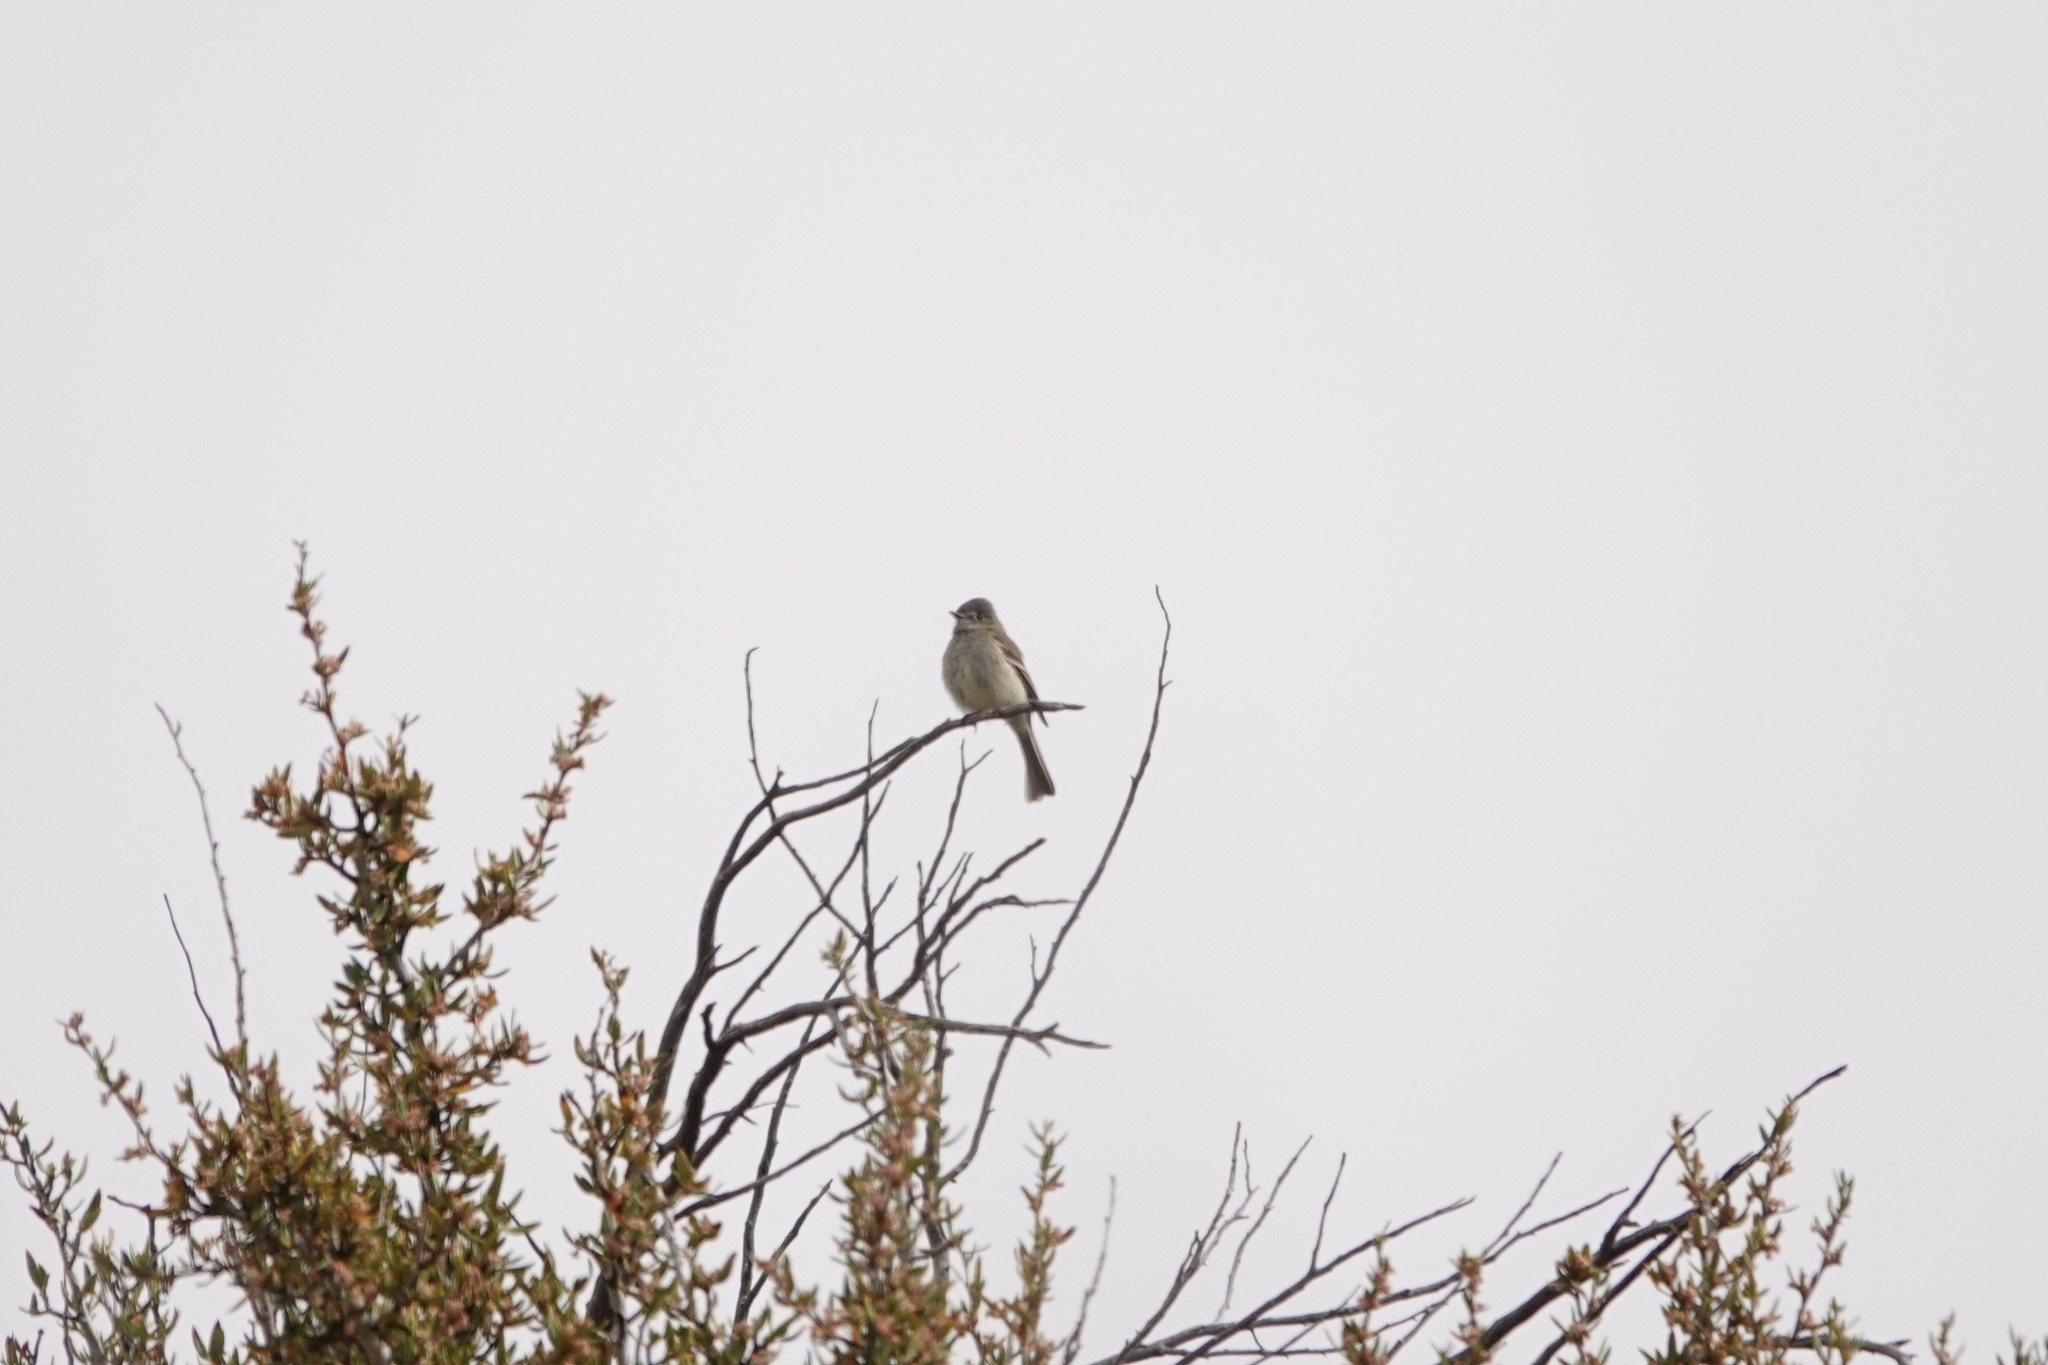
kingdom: Animalia
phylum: Chordata
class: Aves
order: Passeriformes
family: Tyrannidae
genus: Empidonax
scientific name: Empidonax wrightii
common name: Gray flycatcher
